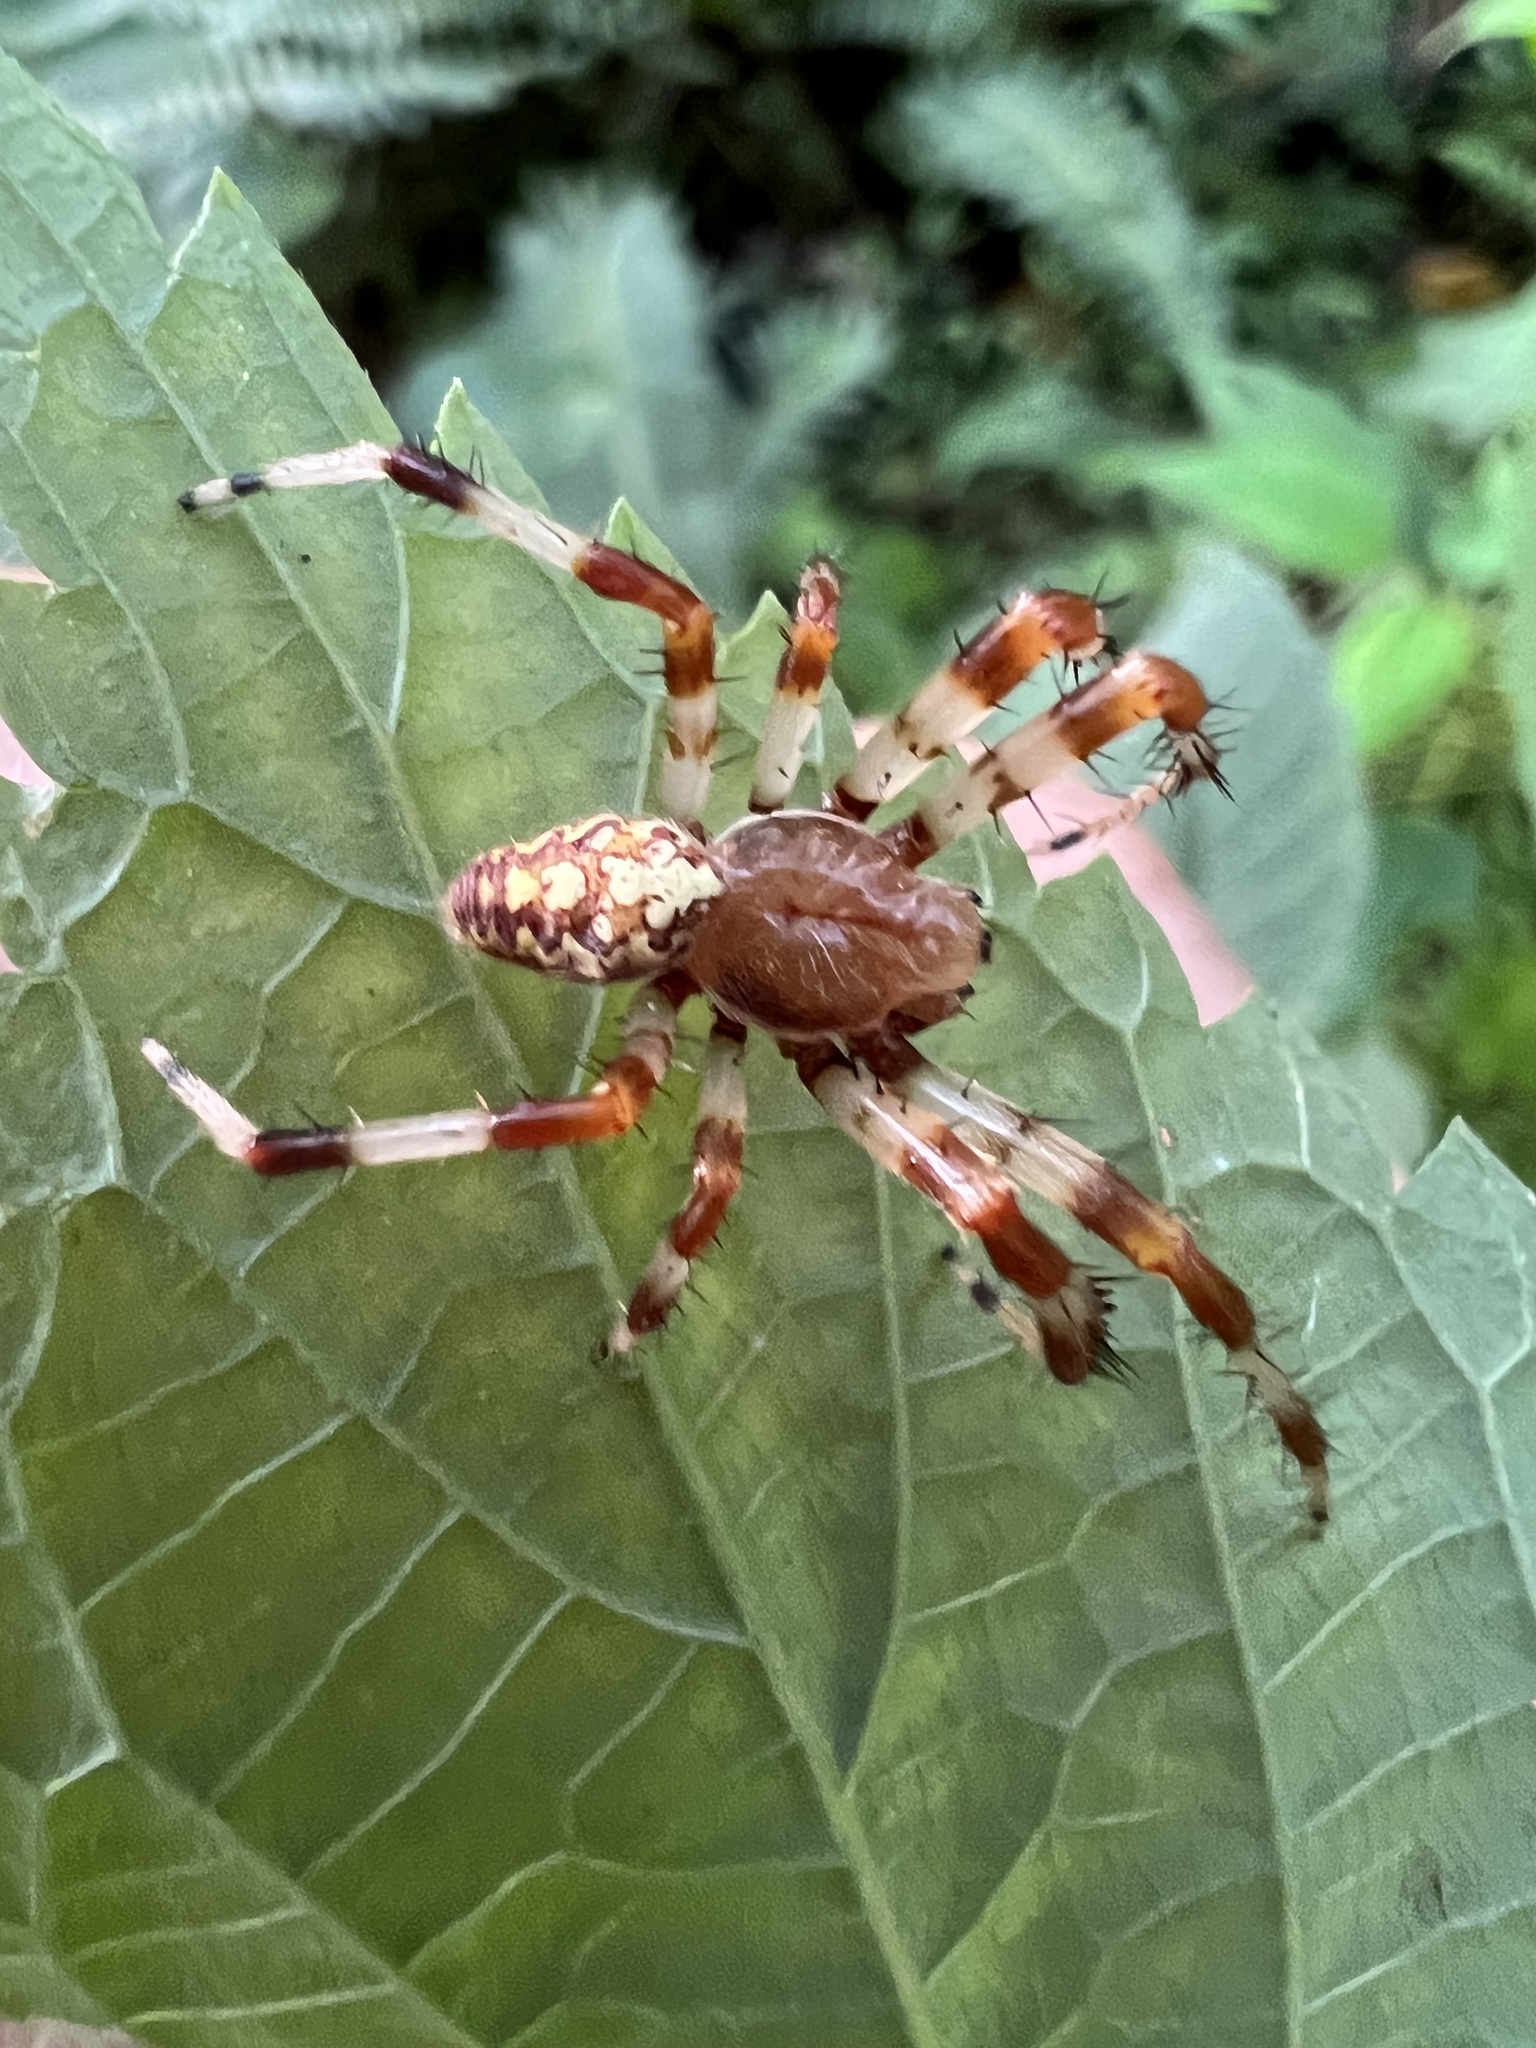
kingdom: Animalia
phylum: Arthropoda
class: Arachnida
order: Araneae
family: Araneidae
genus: Araneus
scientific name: Araneus marmoreus
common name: Marbled orbweaver
